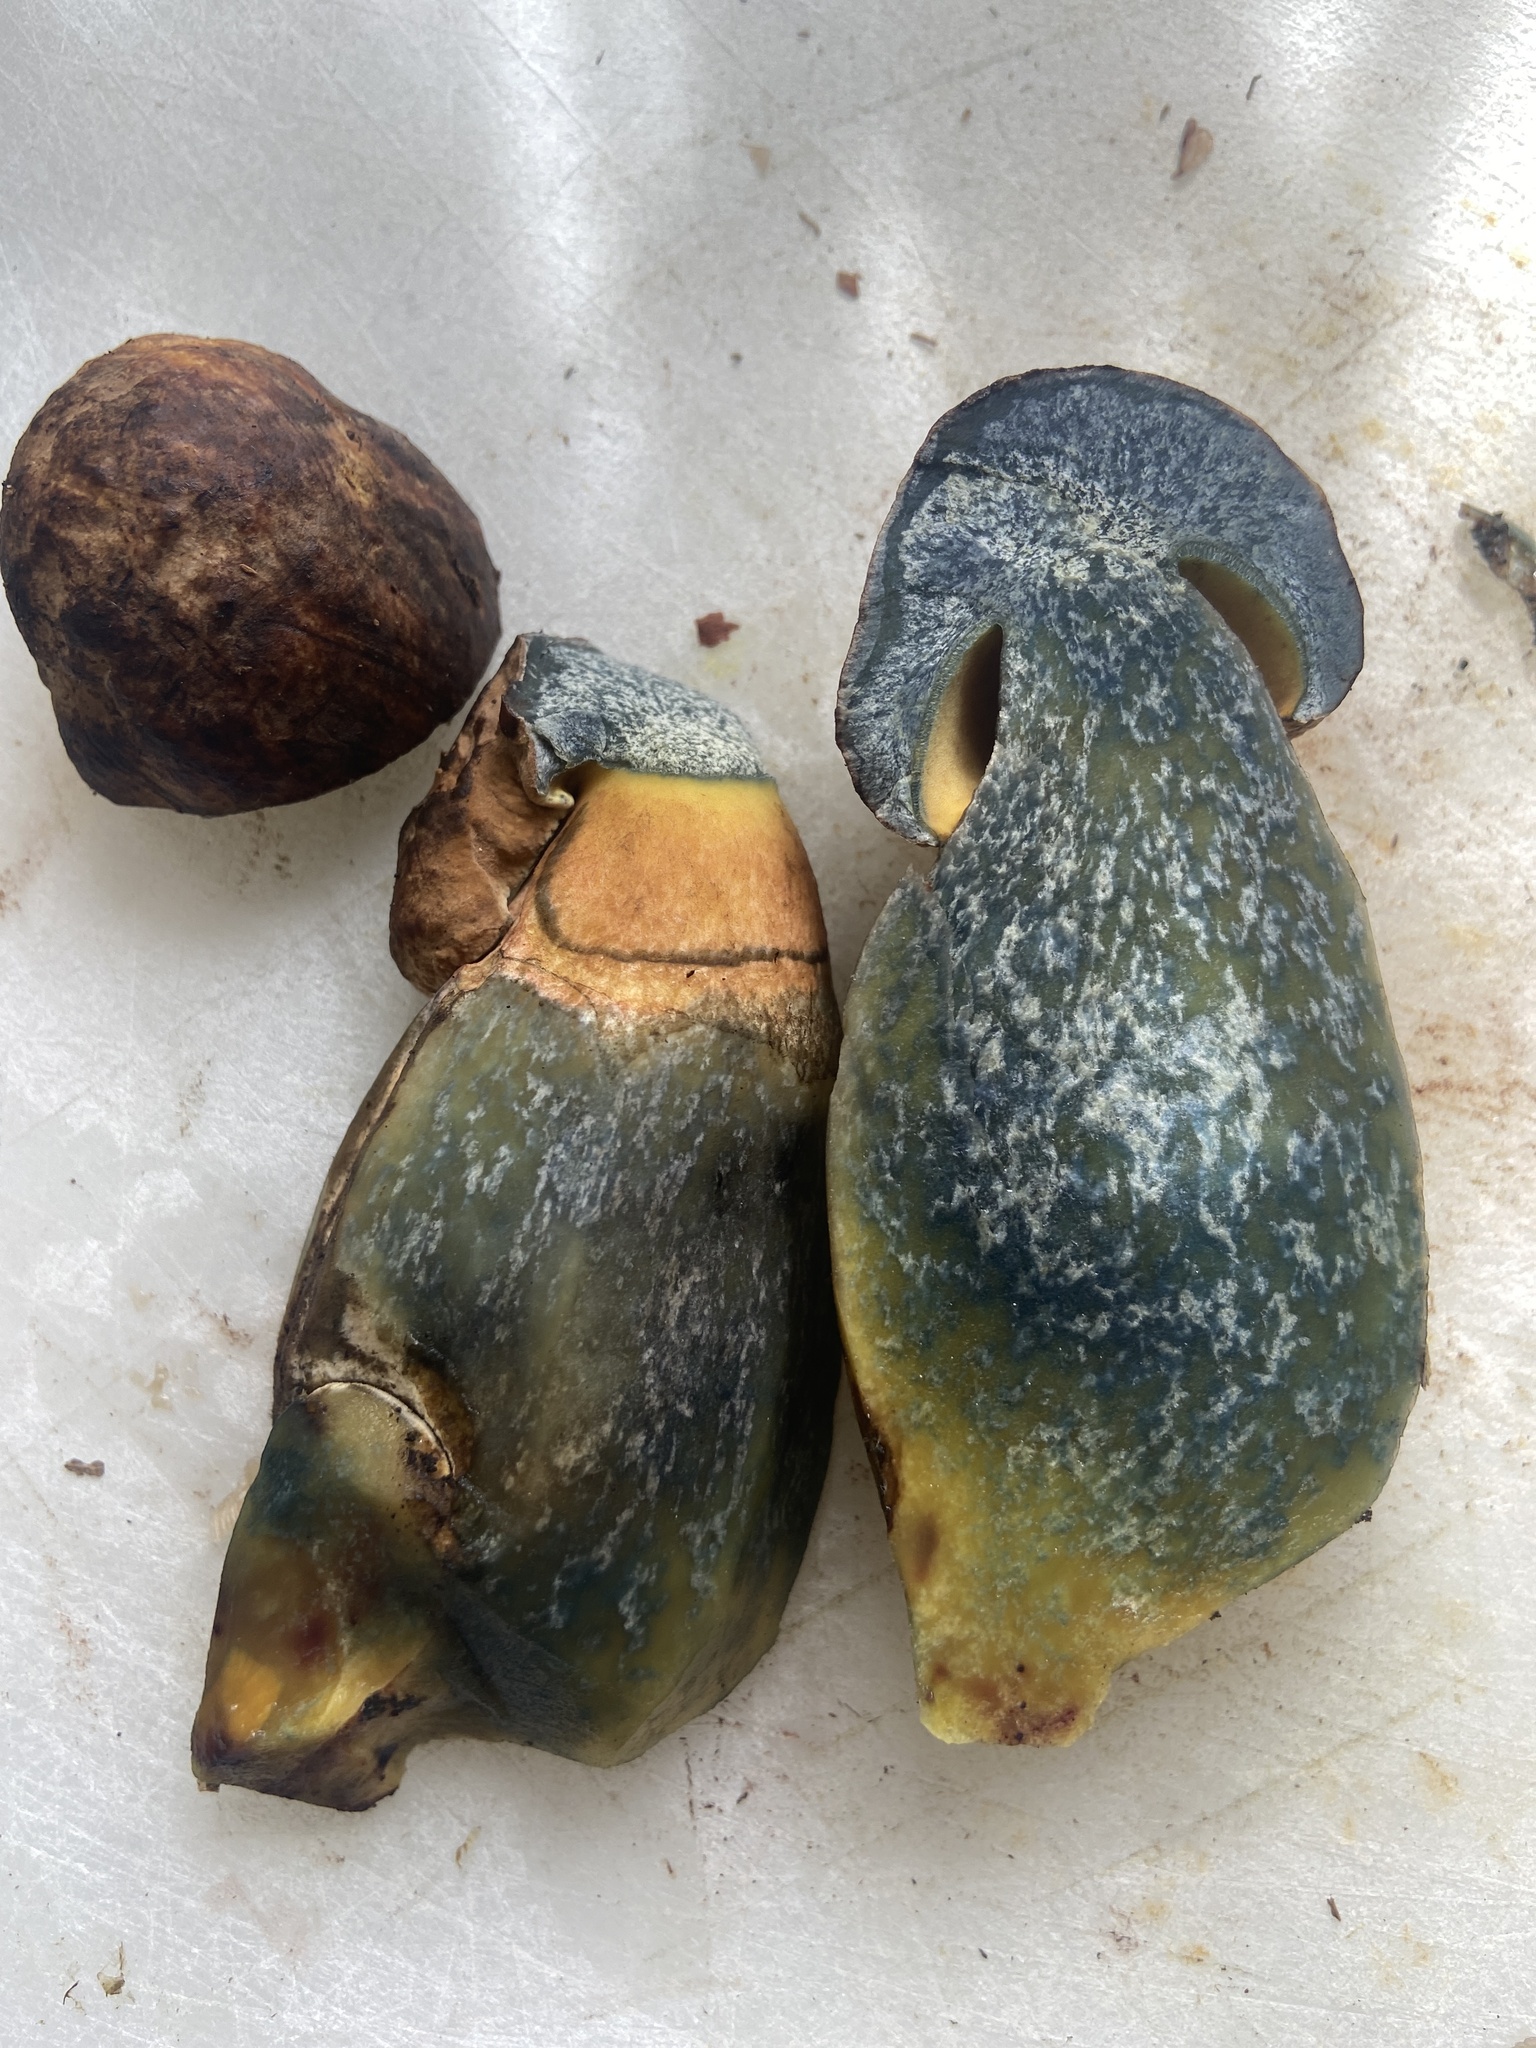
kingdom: Fungi
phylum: Basidiomycota
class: Agaricomycetes
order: Boletales
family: Boletaceae
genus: Neoboletus
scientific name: Neoboletus erythropus
